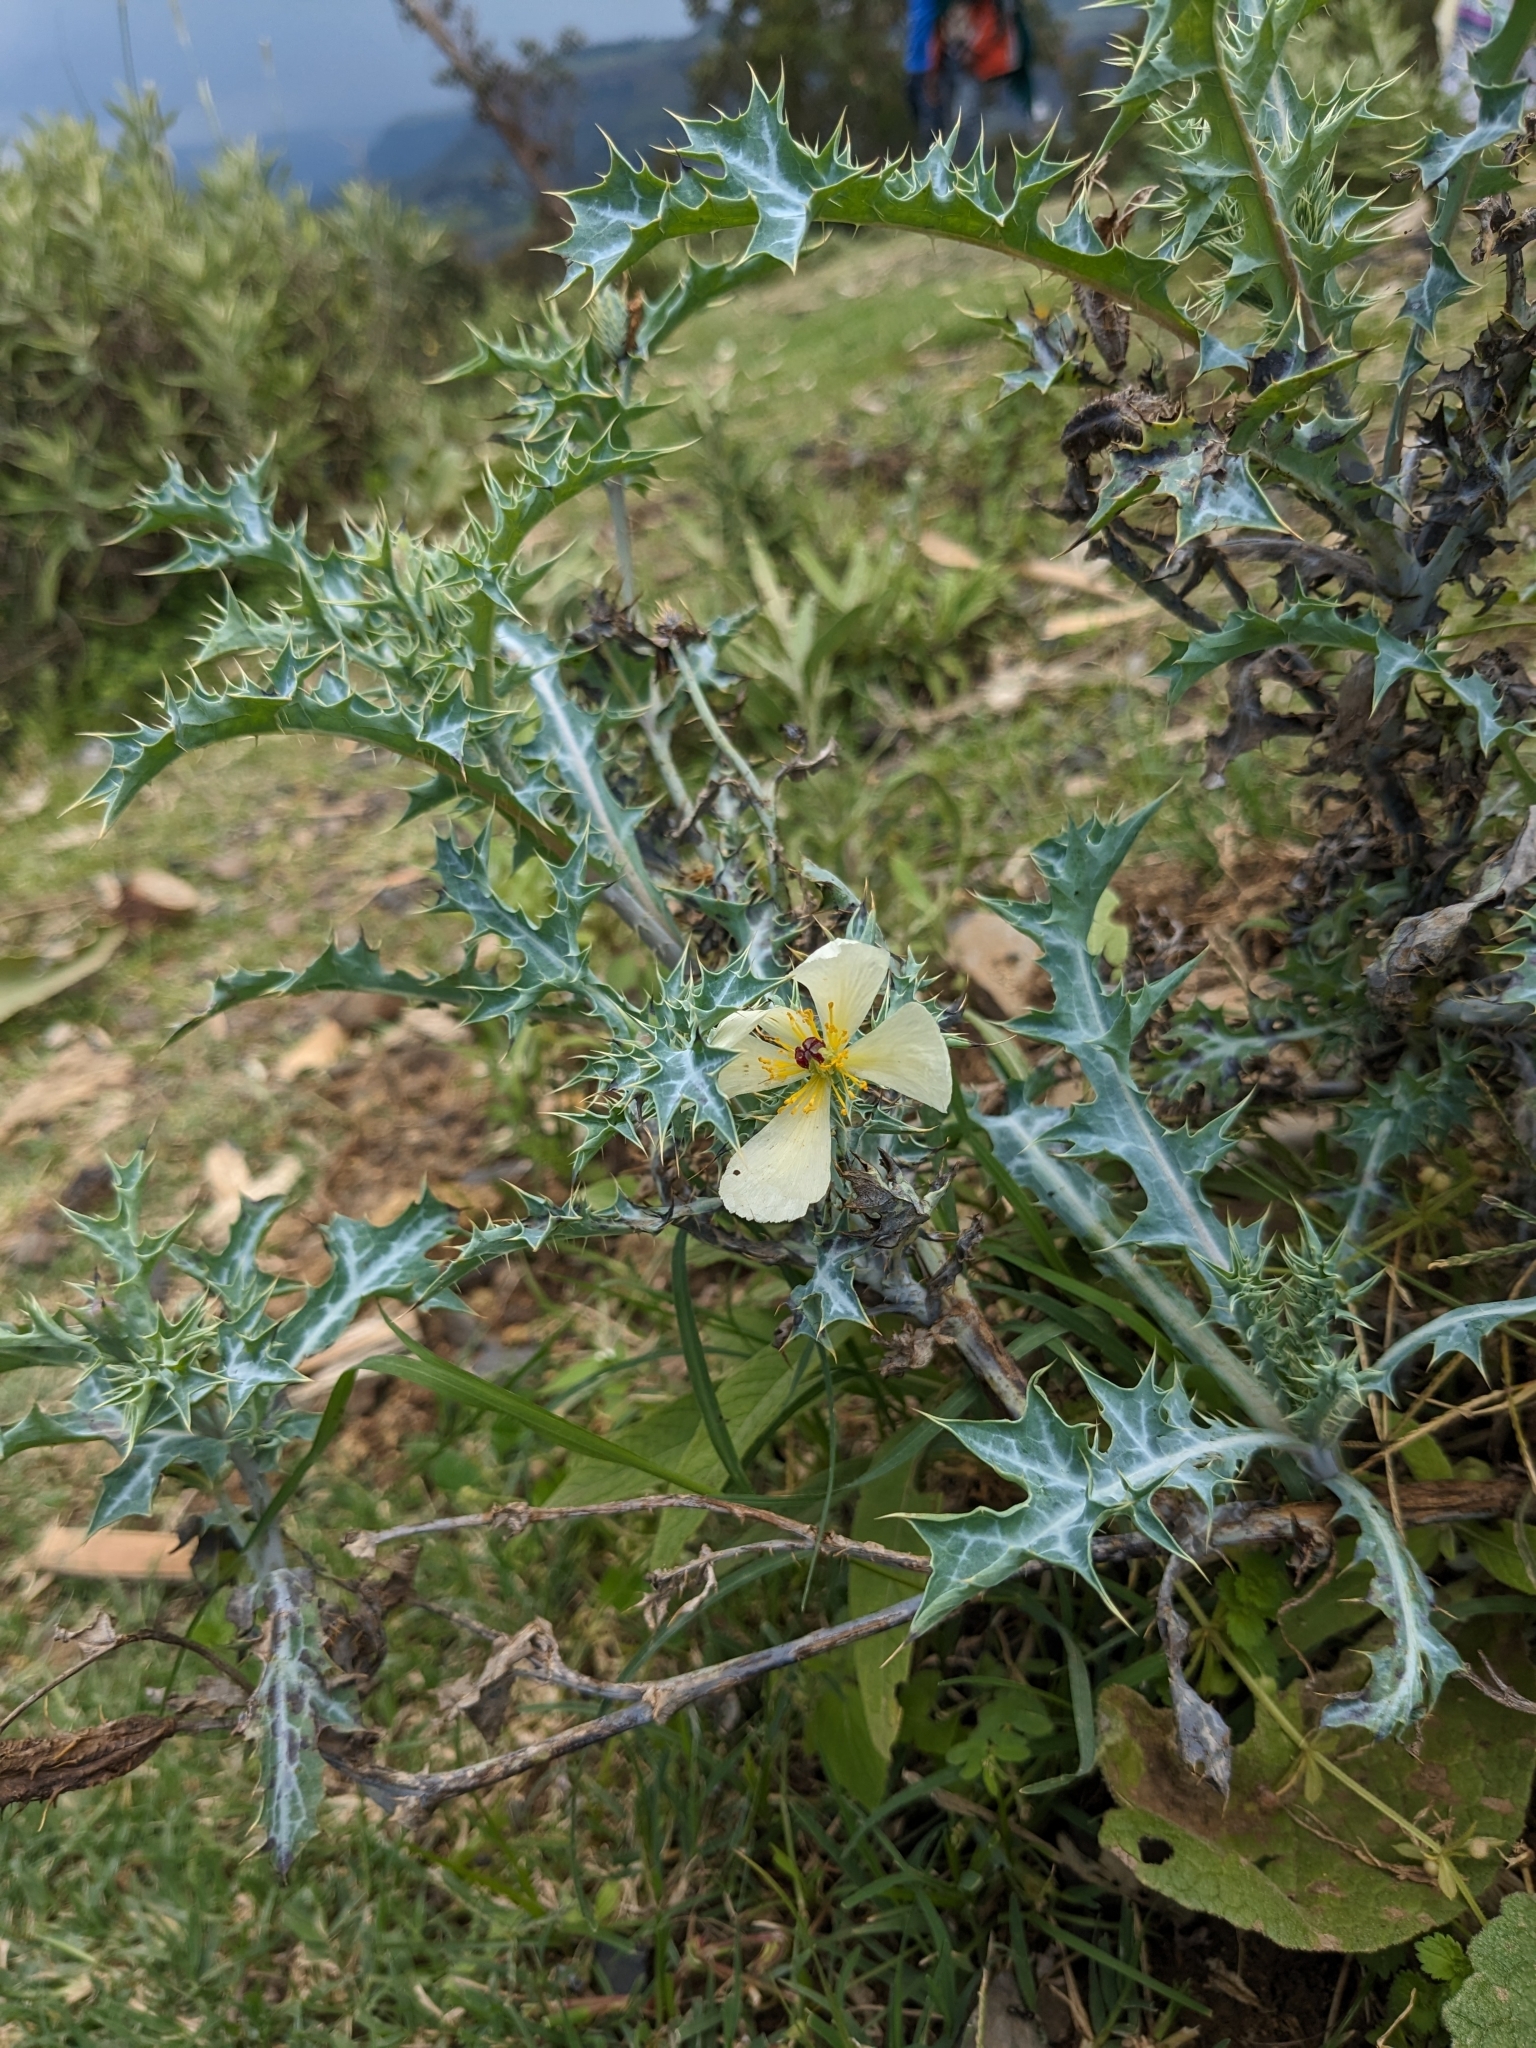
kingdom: Plantae
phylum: Tracheophyta
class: Magnoliopsida
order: Ranunculales
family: Papaveraceae
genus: Argemone
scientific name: Argemone ochroleuca
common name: White-flower mexican-poppy
